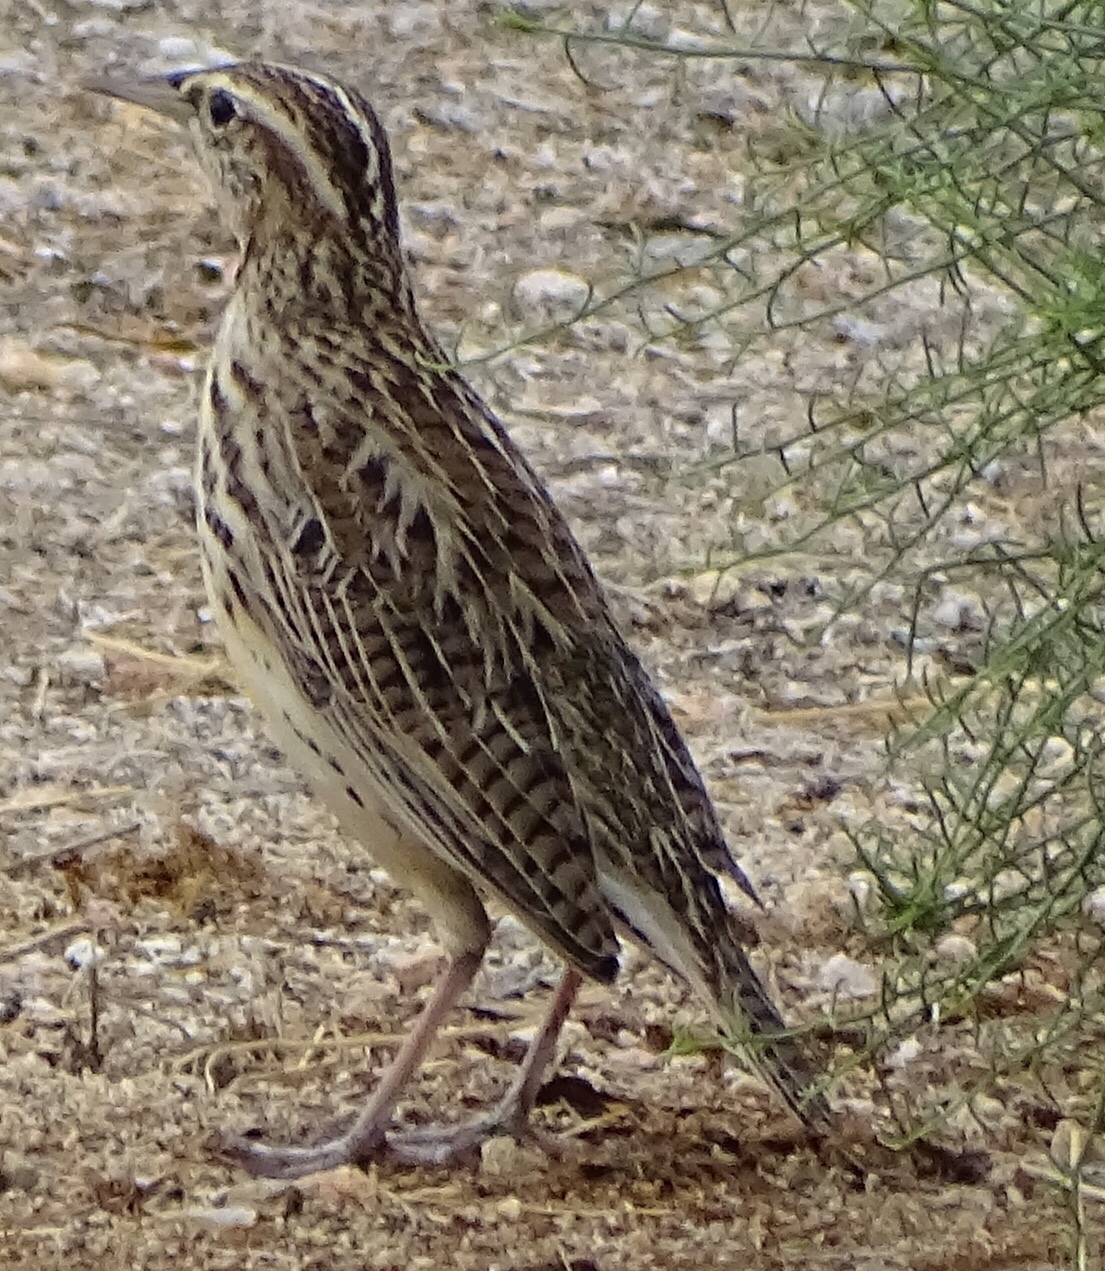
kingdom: Animalia
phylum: Chordata
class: Aves
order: Passeriformes
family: Icteridae
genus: Sturnella
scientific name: Sturnella neglecta
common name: Western meadowlark
